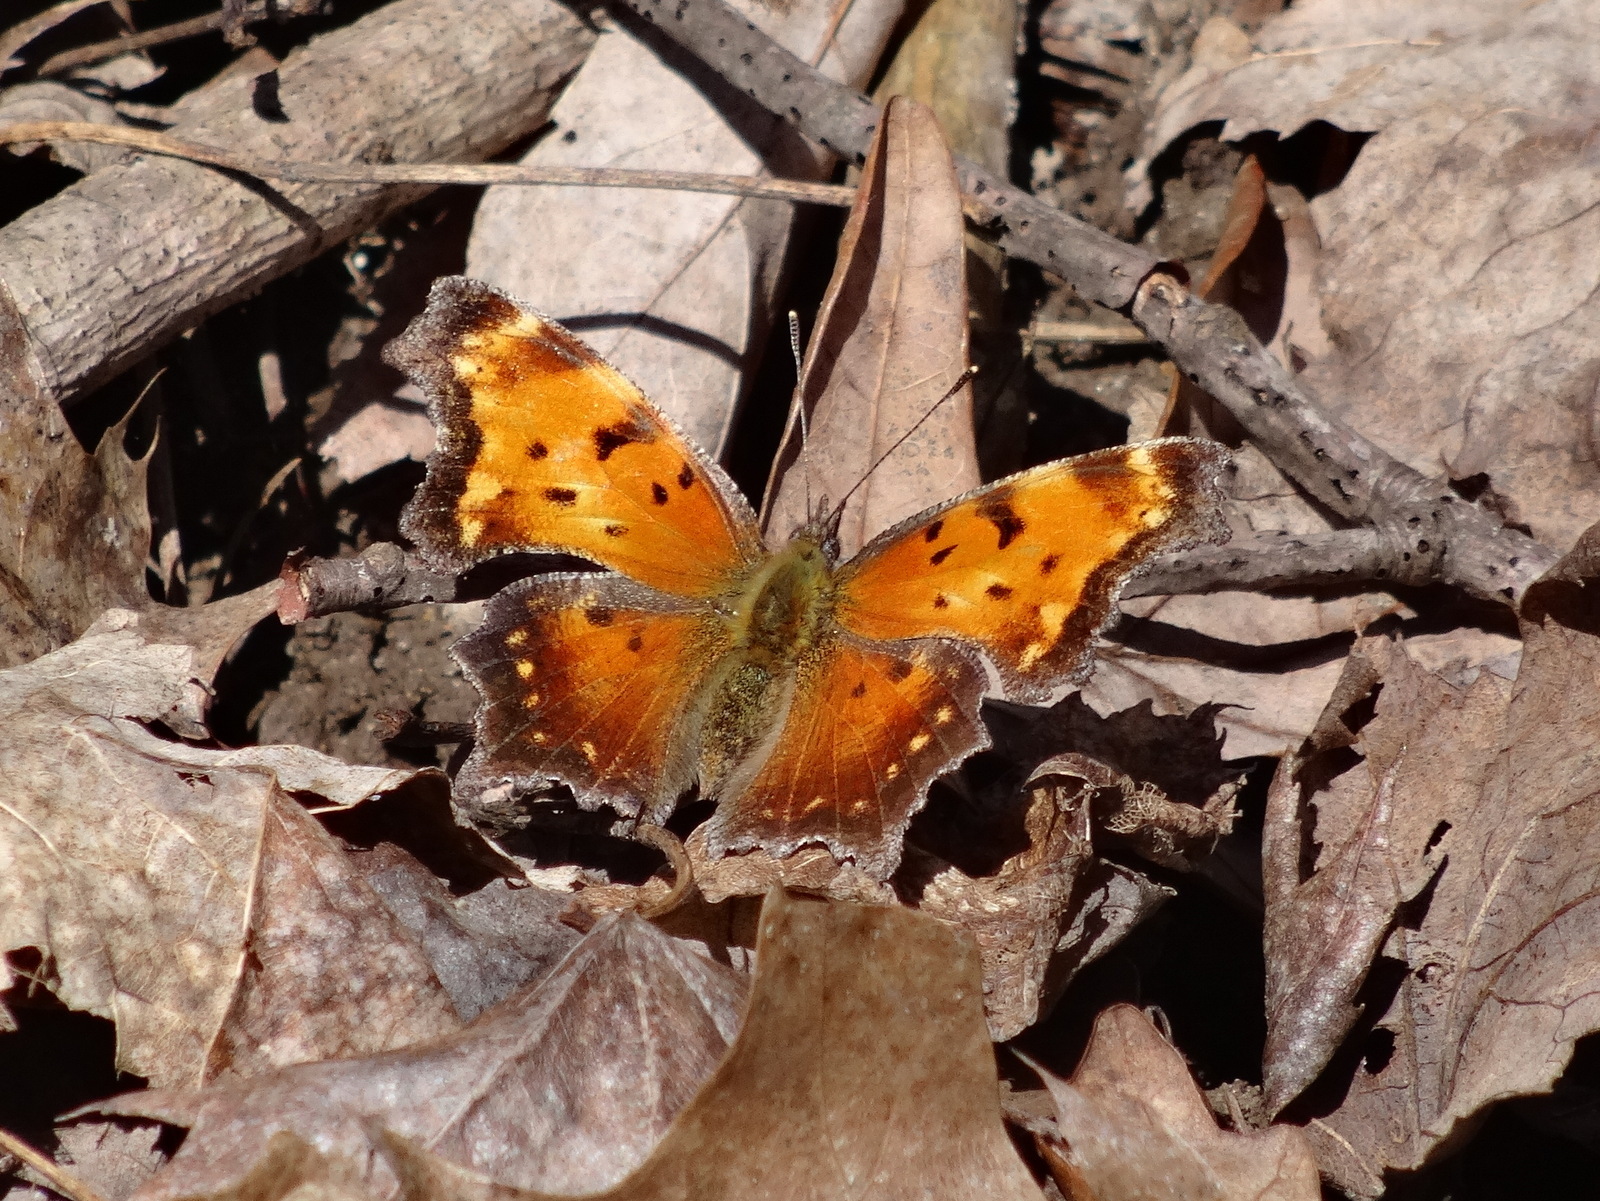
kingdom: Animalia
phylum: Arthropoda
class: Insecta
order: Lepidoptera
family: Nymphalidae
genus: Polygonia
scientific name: Polygonia progne
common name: Gray comma
